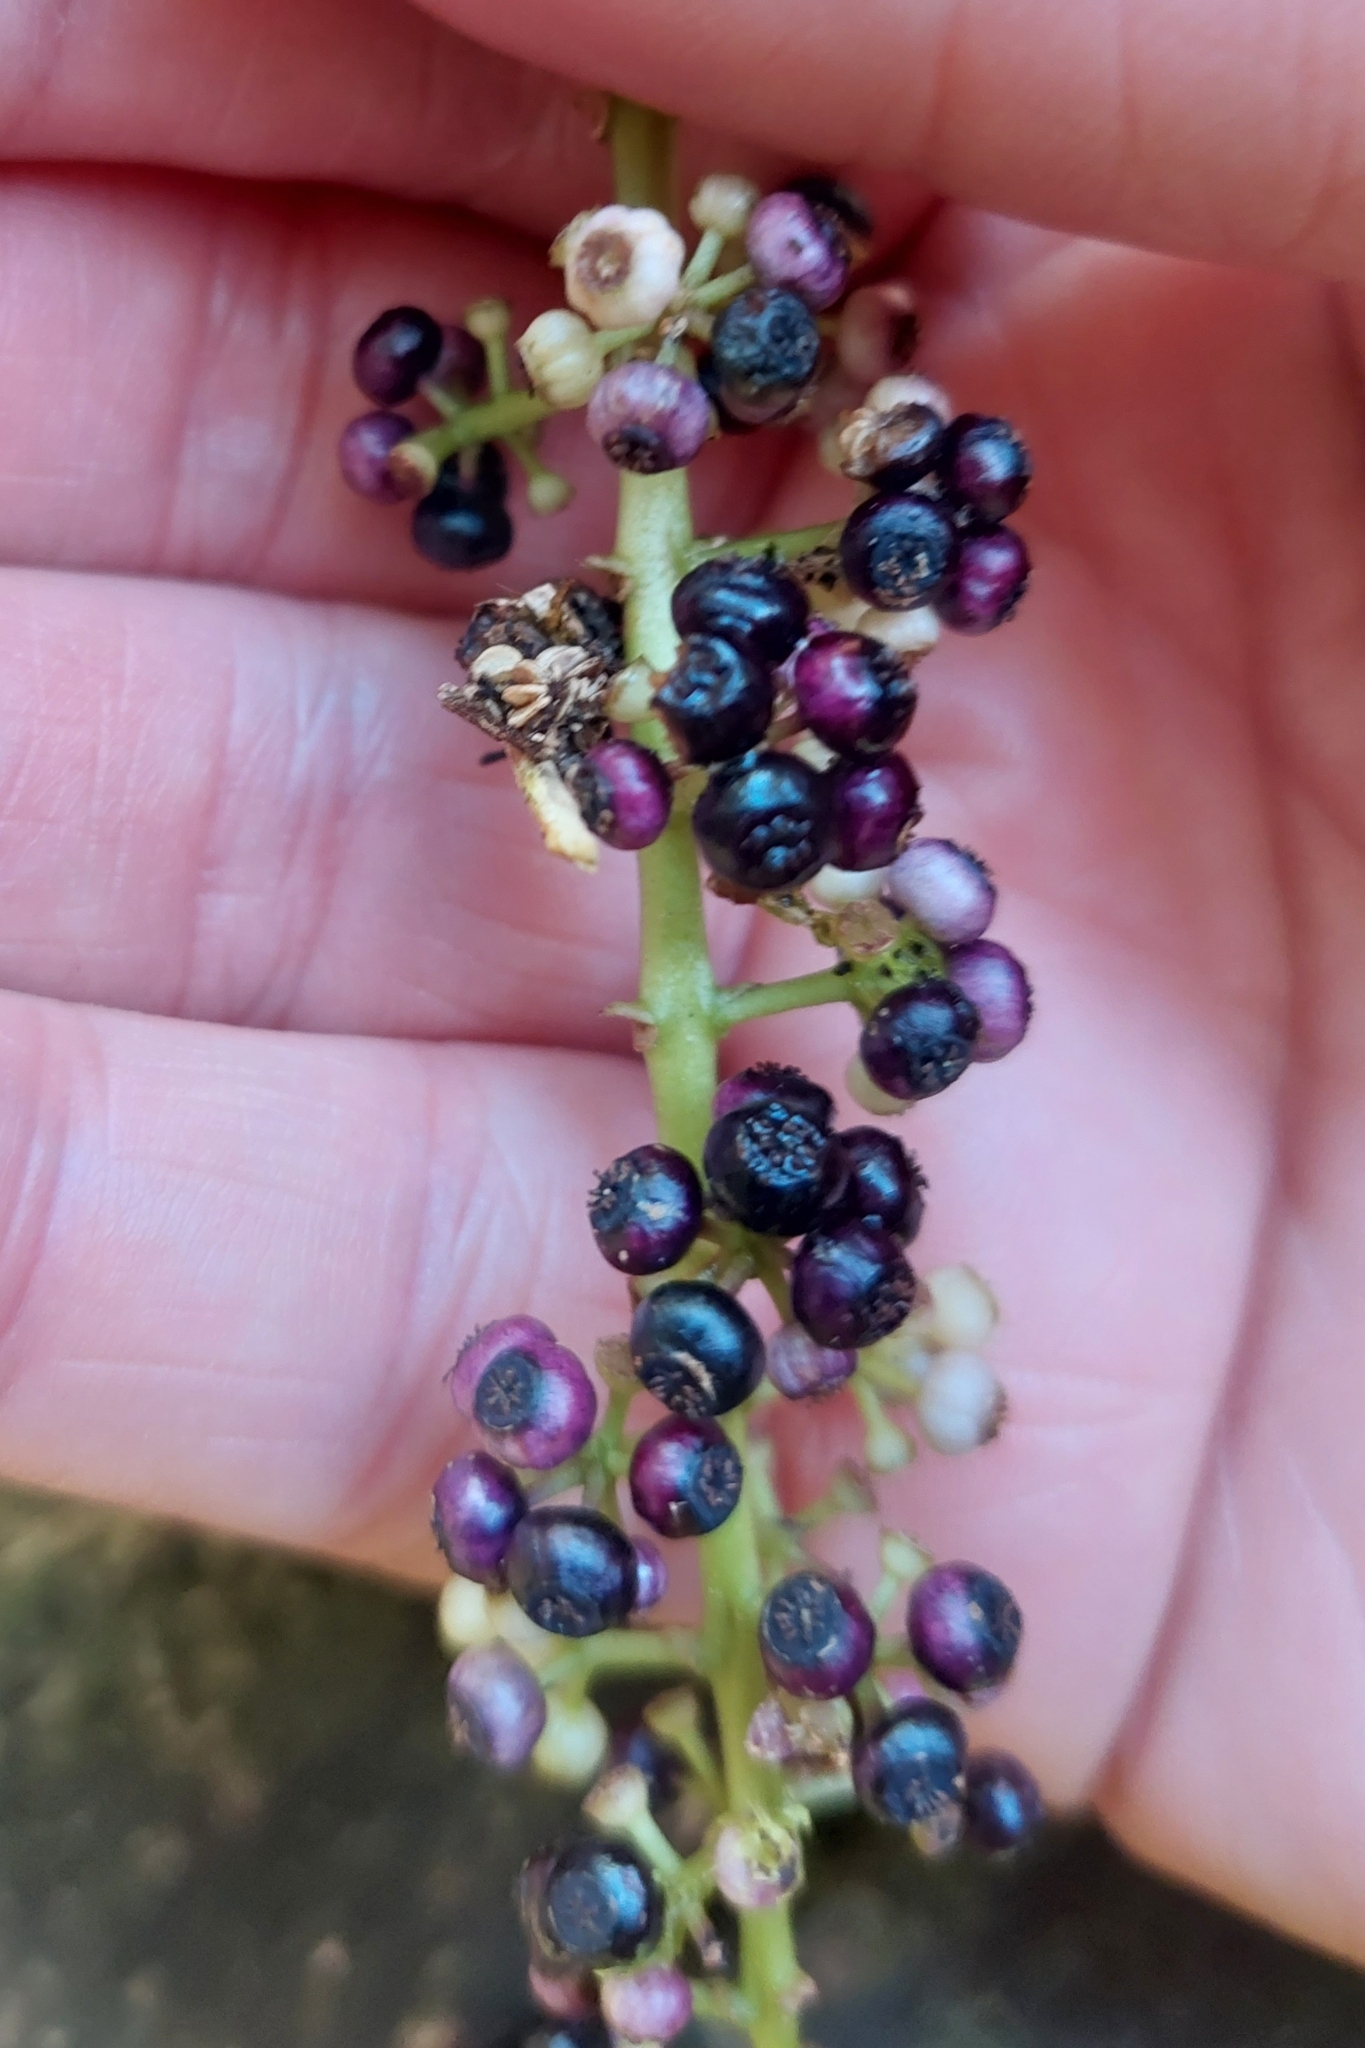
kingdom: Plantae
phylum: Tracheophyta
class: Magnoliopsida
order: Apiales
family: Araliaceae
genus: Schefflera
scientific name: Schefflera digitata
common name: Pate
